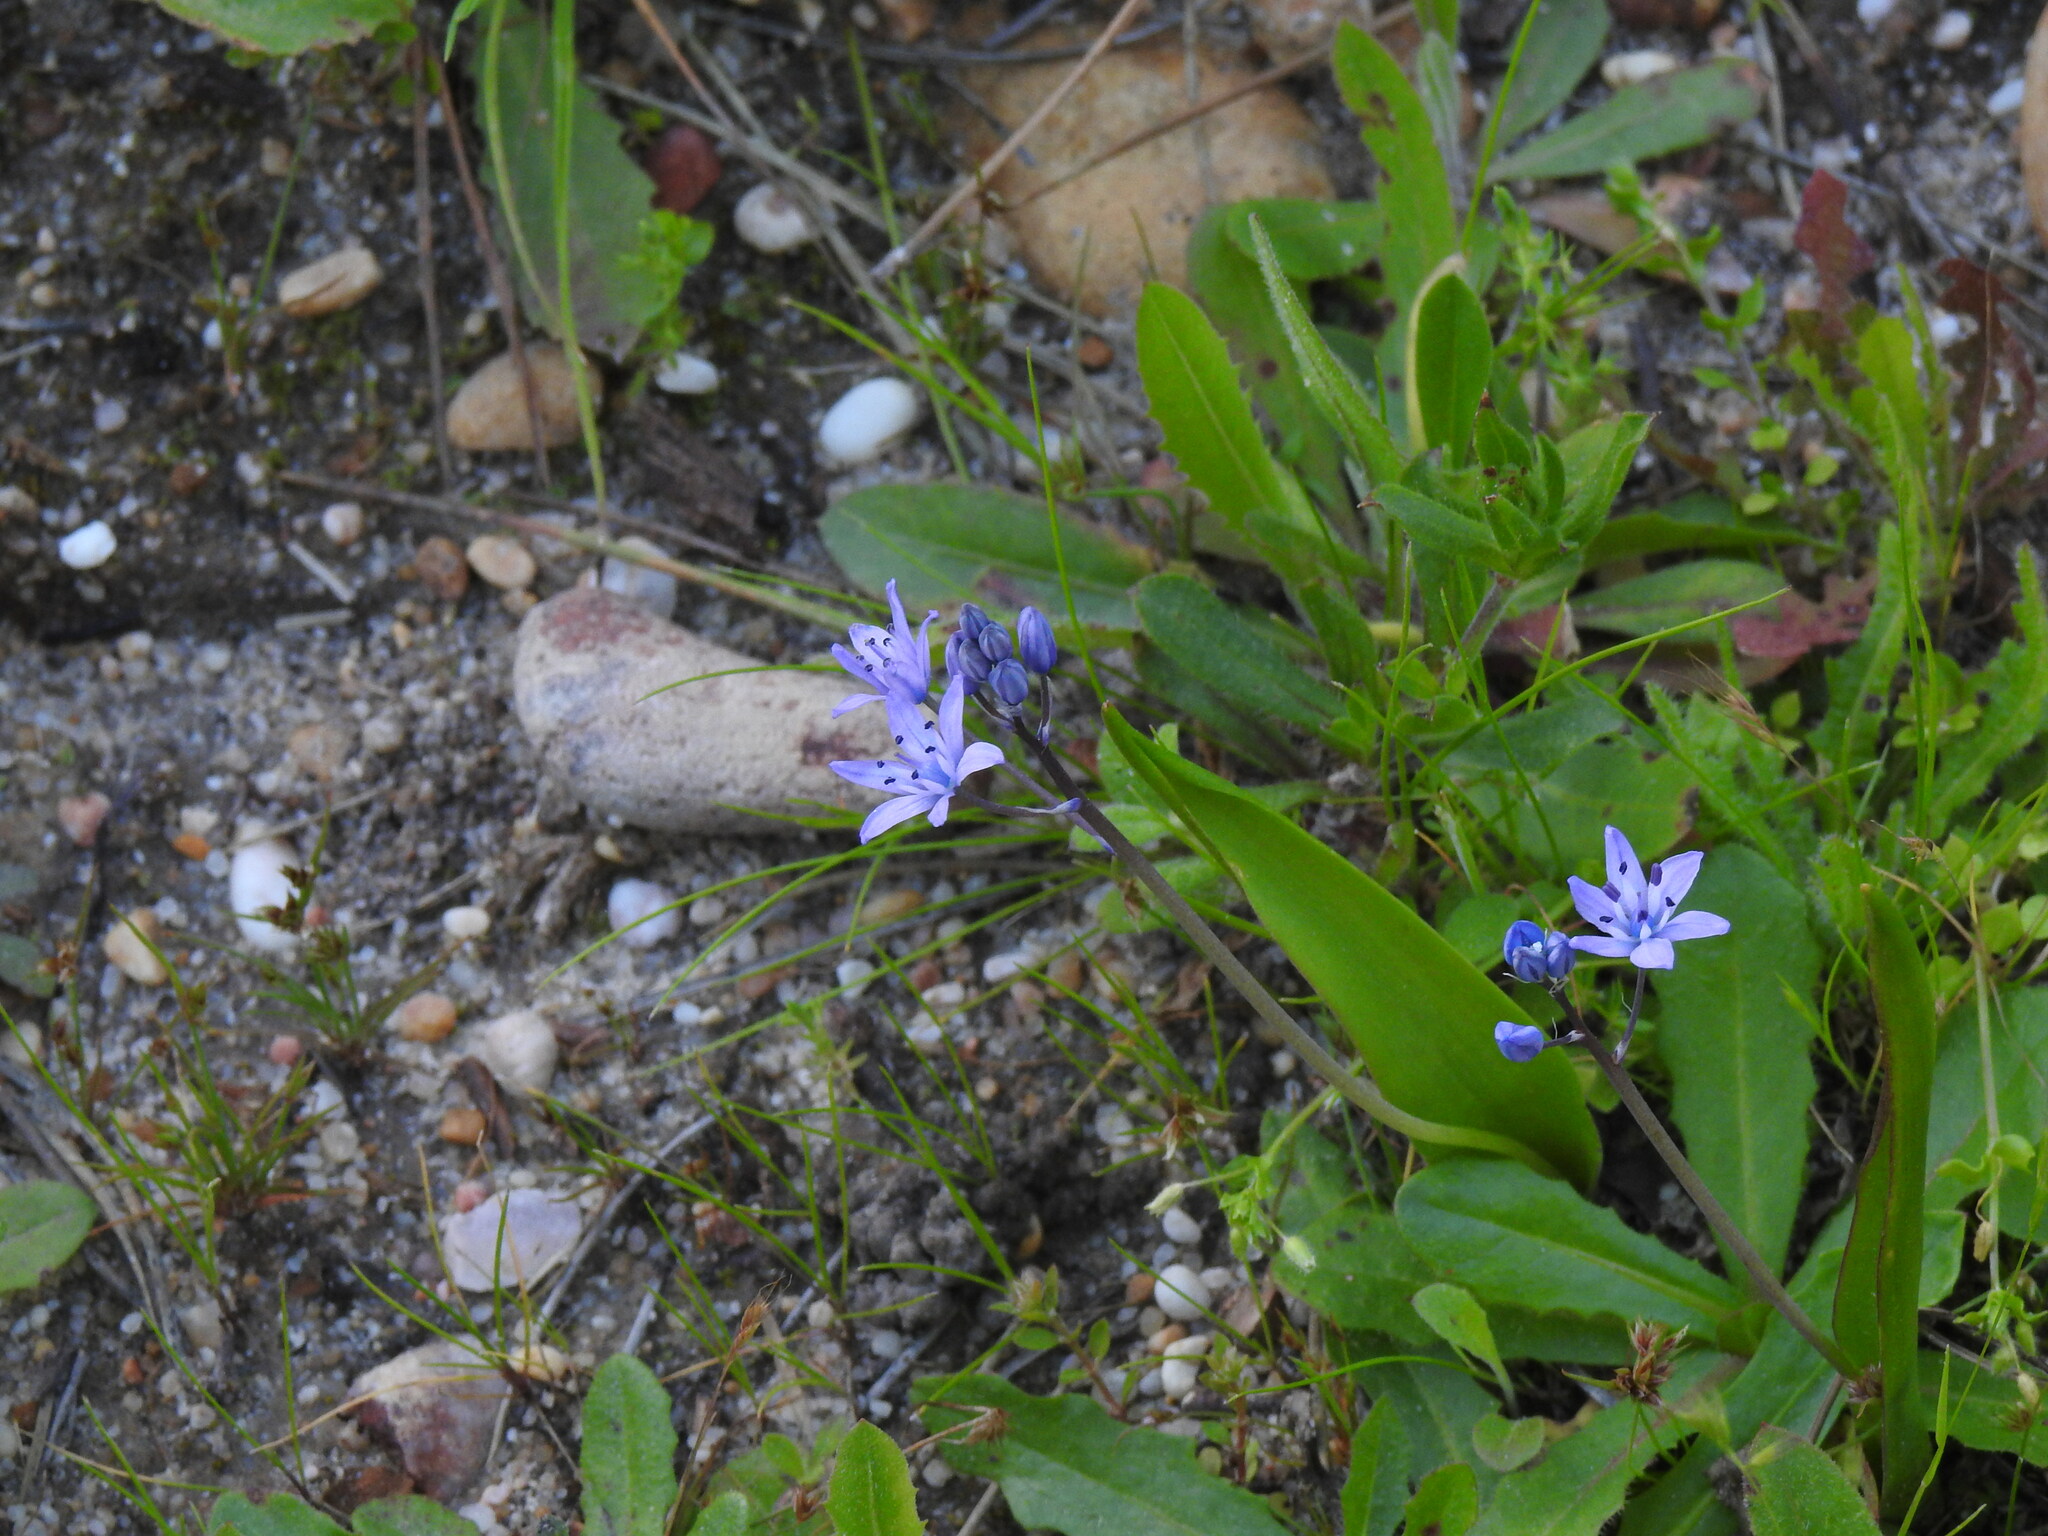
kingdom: Plantae
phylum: Tracheophyta
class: Liliopsida
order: Asparagales
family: Asparagaceae
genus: Scilla
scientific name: Scilla monophyllos
